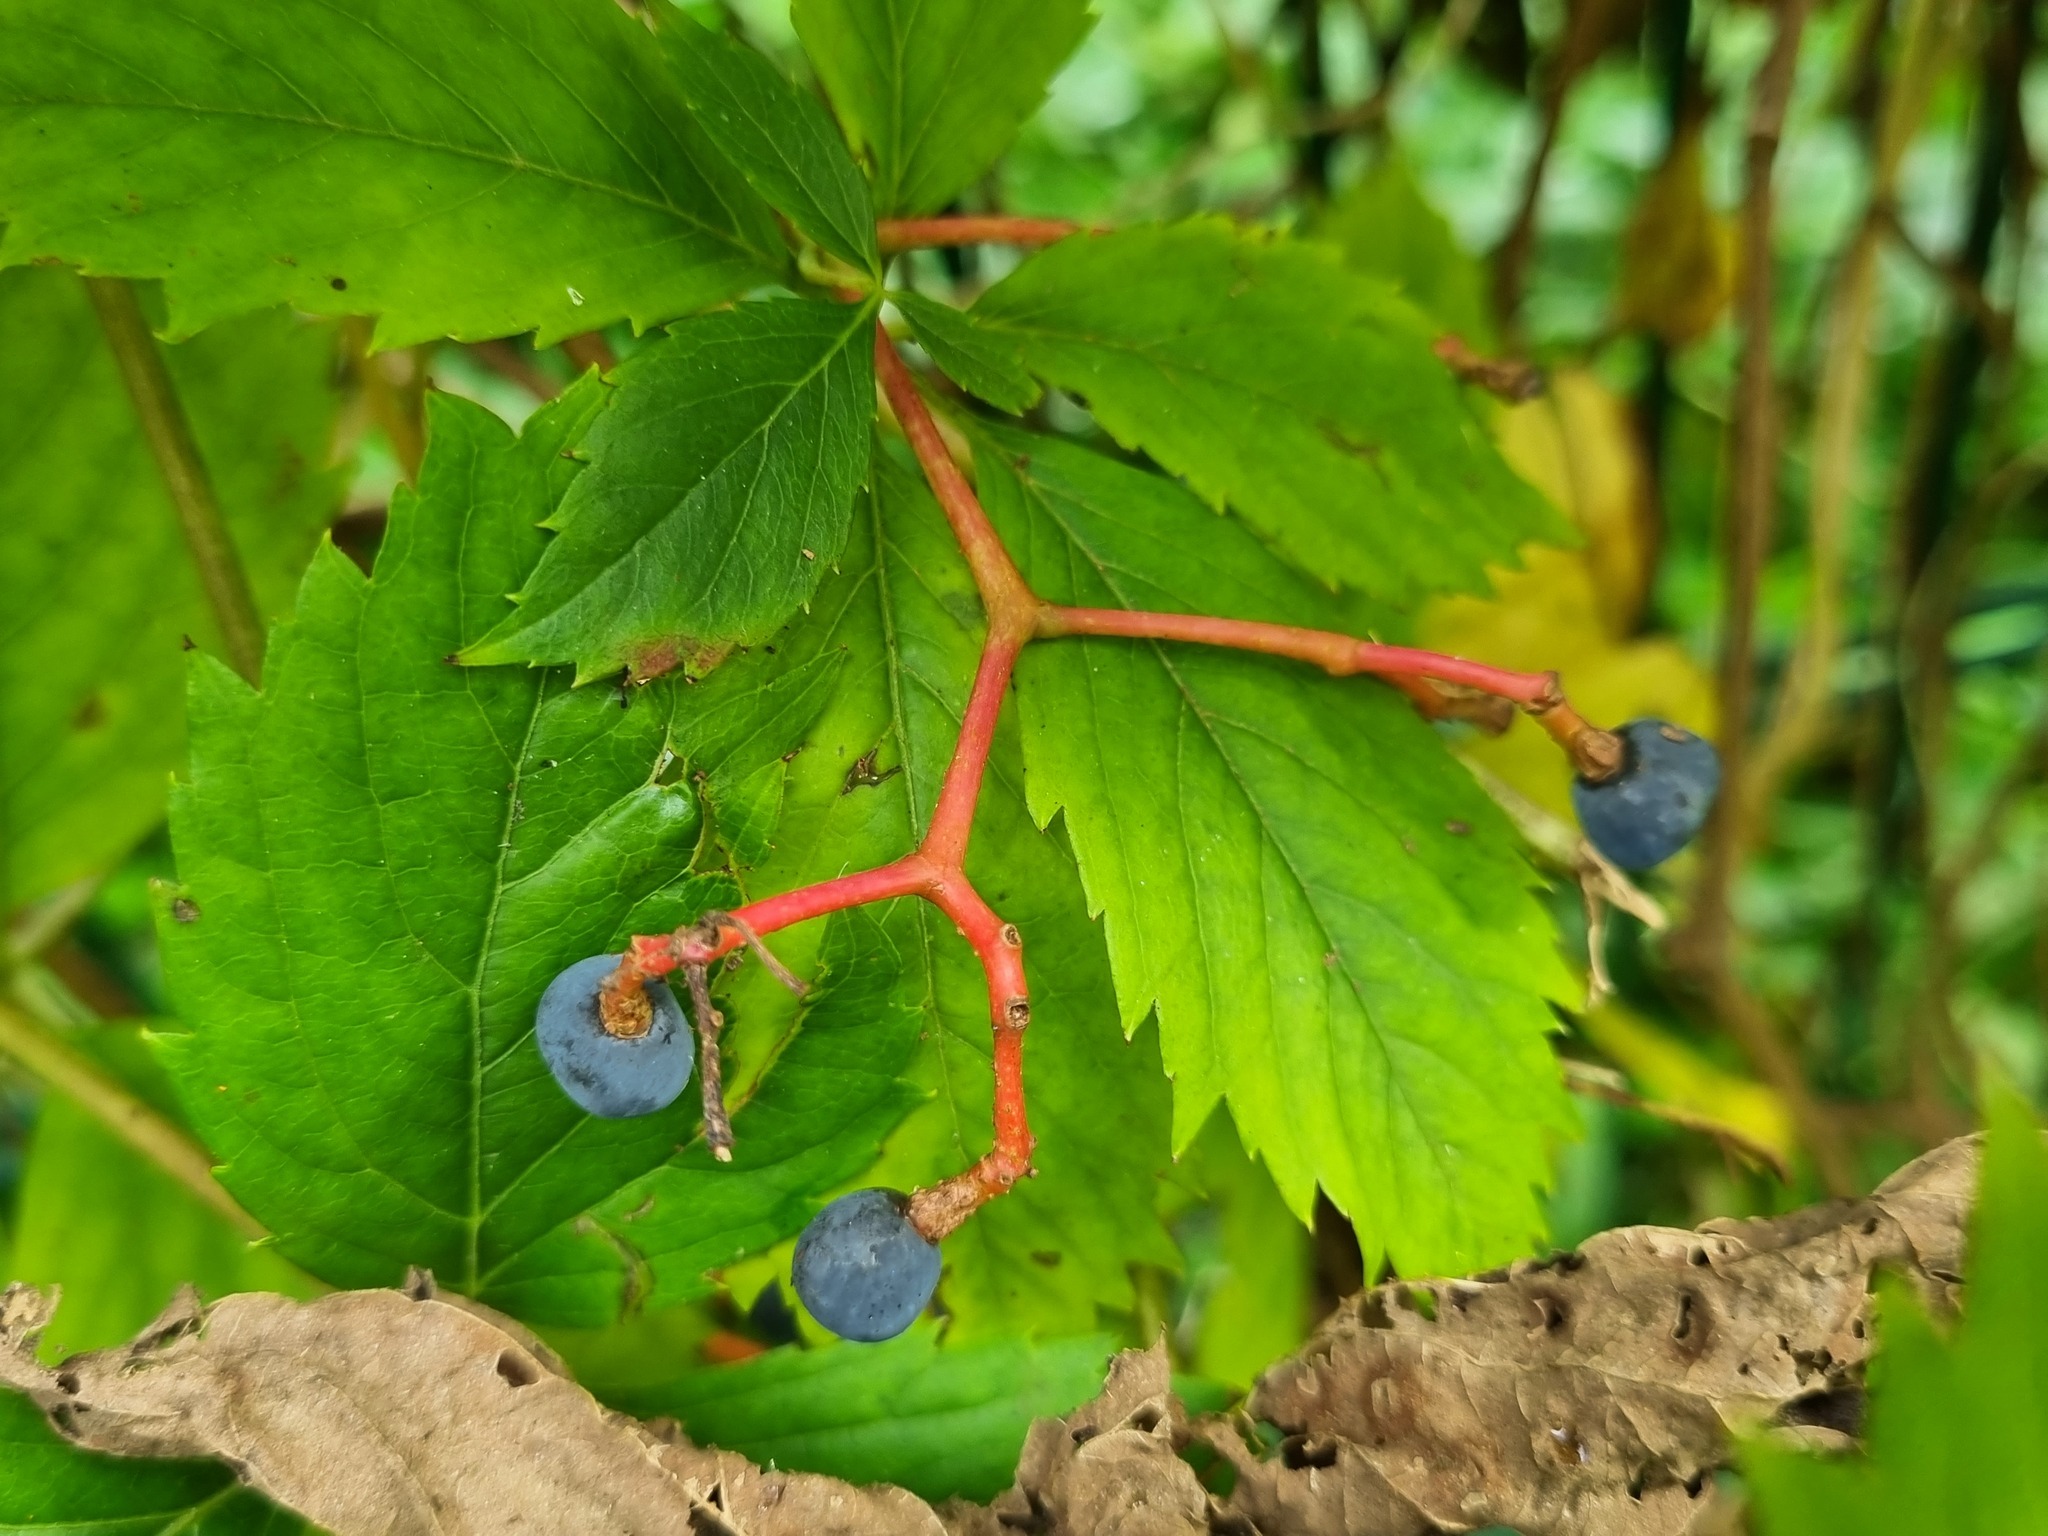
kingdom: Plantae
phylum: Tracheophyta
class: Magnoliopsida
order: Vitales
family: Vitaceae
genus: Parthenocissus
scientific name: Parthenocissus inserta
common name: False virginia-creeper
